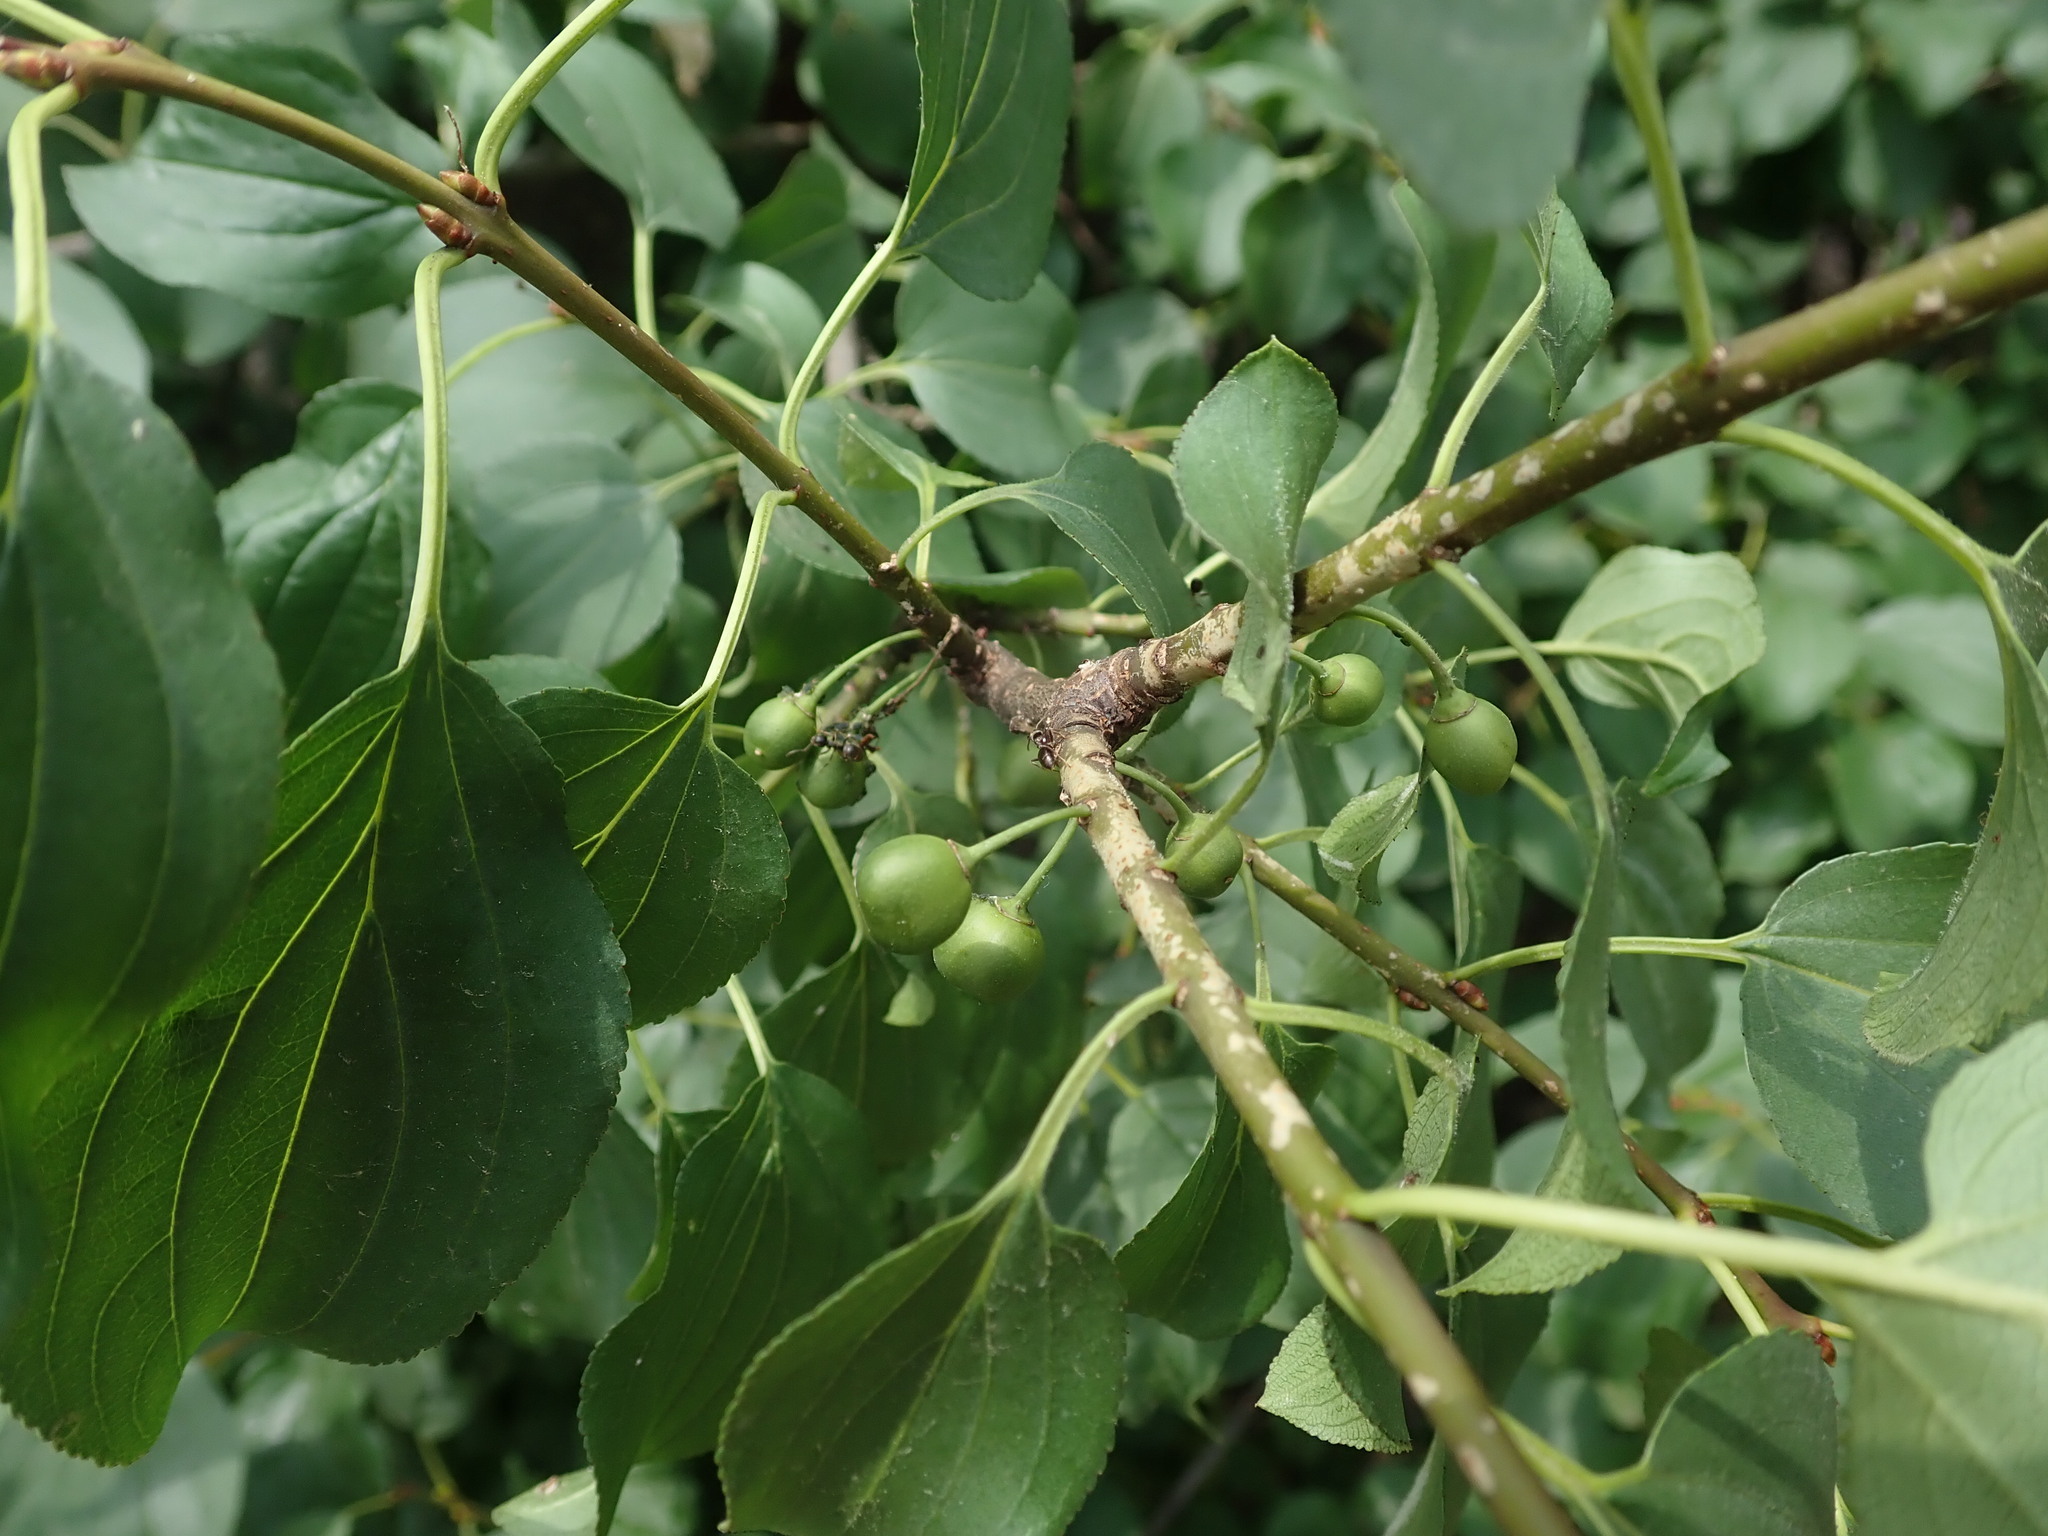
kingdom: Plantae
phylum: Tracheophyta
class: Magnoliopsida
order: Rosales
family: Rhamnaceae
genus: Rhamnus
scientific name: Rhamnus cathartica
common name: Common buckthorn
